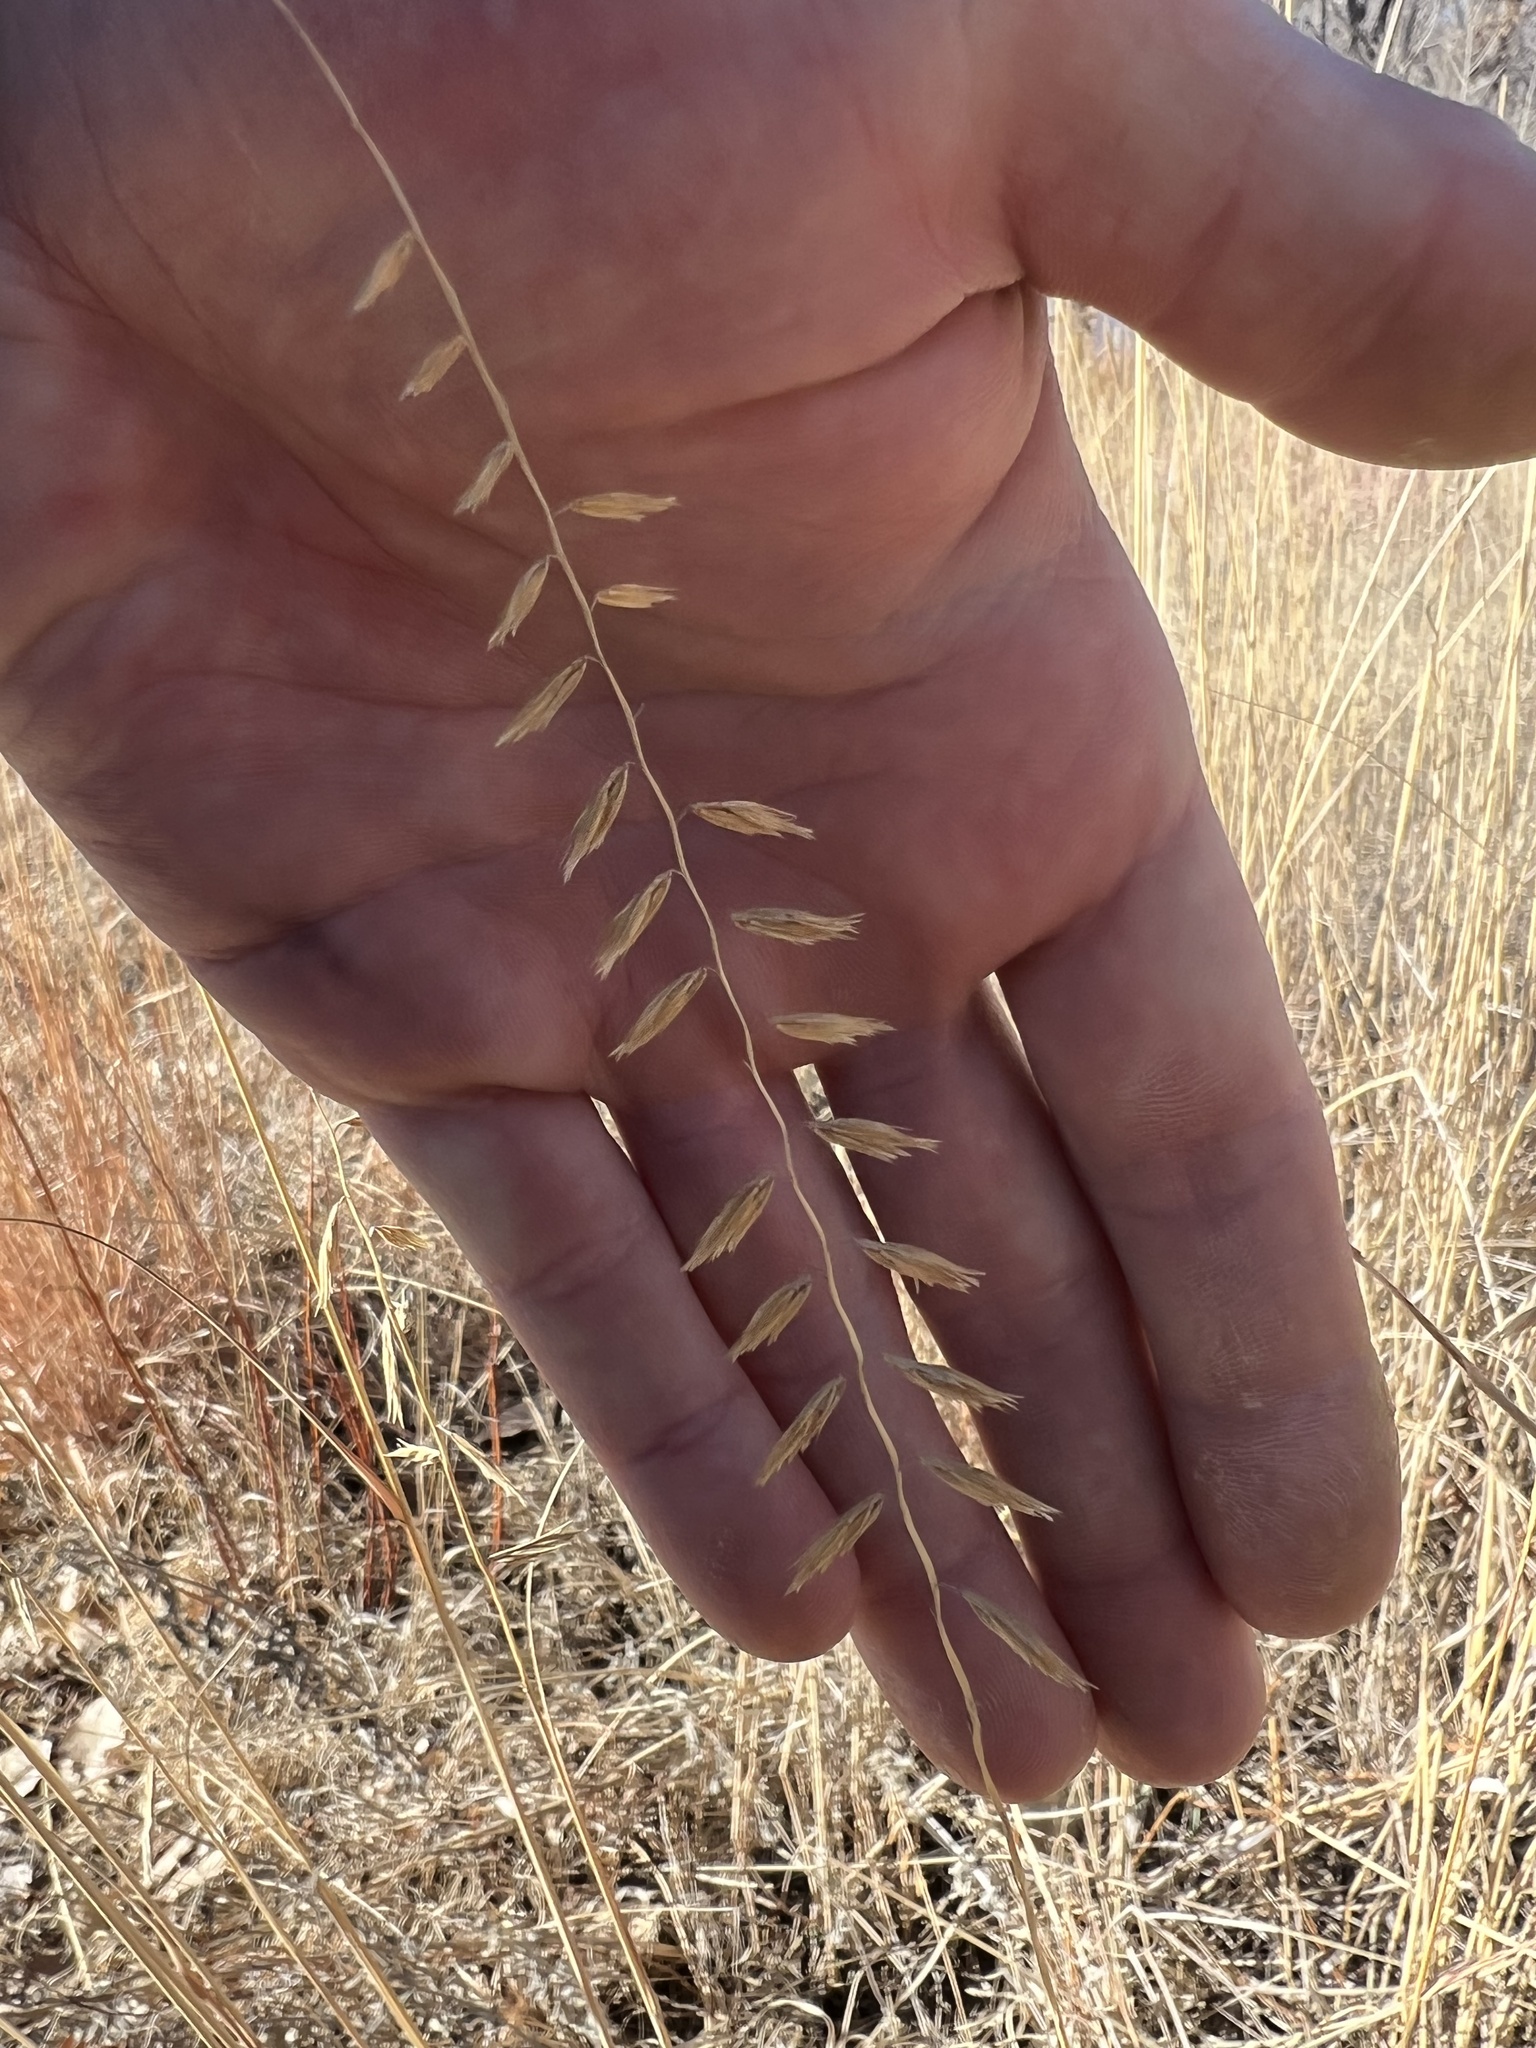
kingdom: Plantae
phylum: Tracheophyta
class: Liliopsida
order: Poales
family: Poaceae
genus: Bouteloua
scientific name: Bouteloua curtipendula
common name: Side-oats grama
